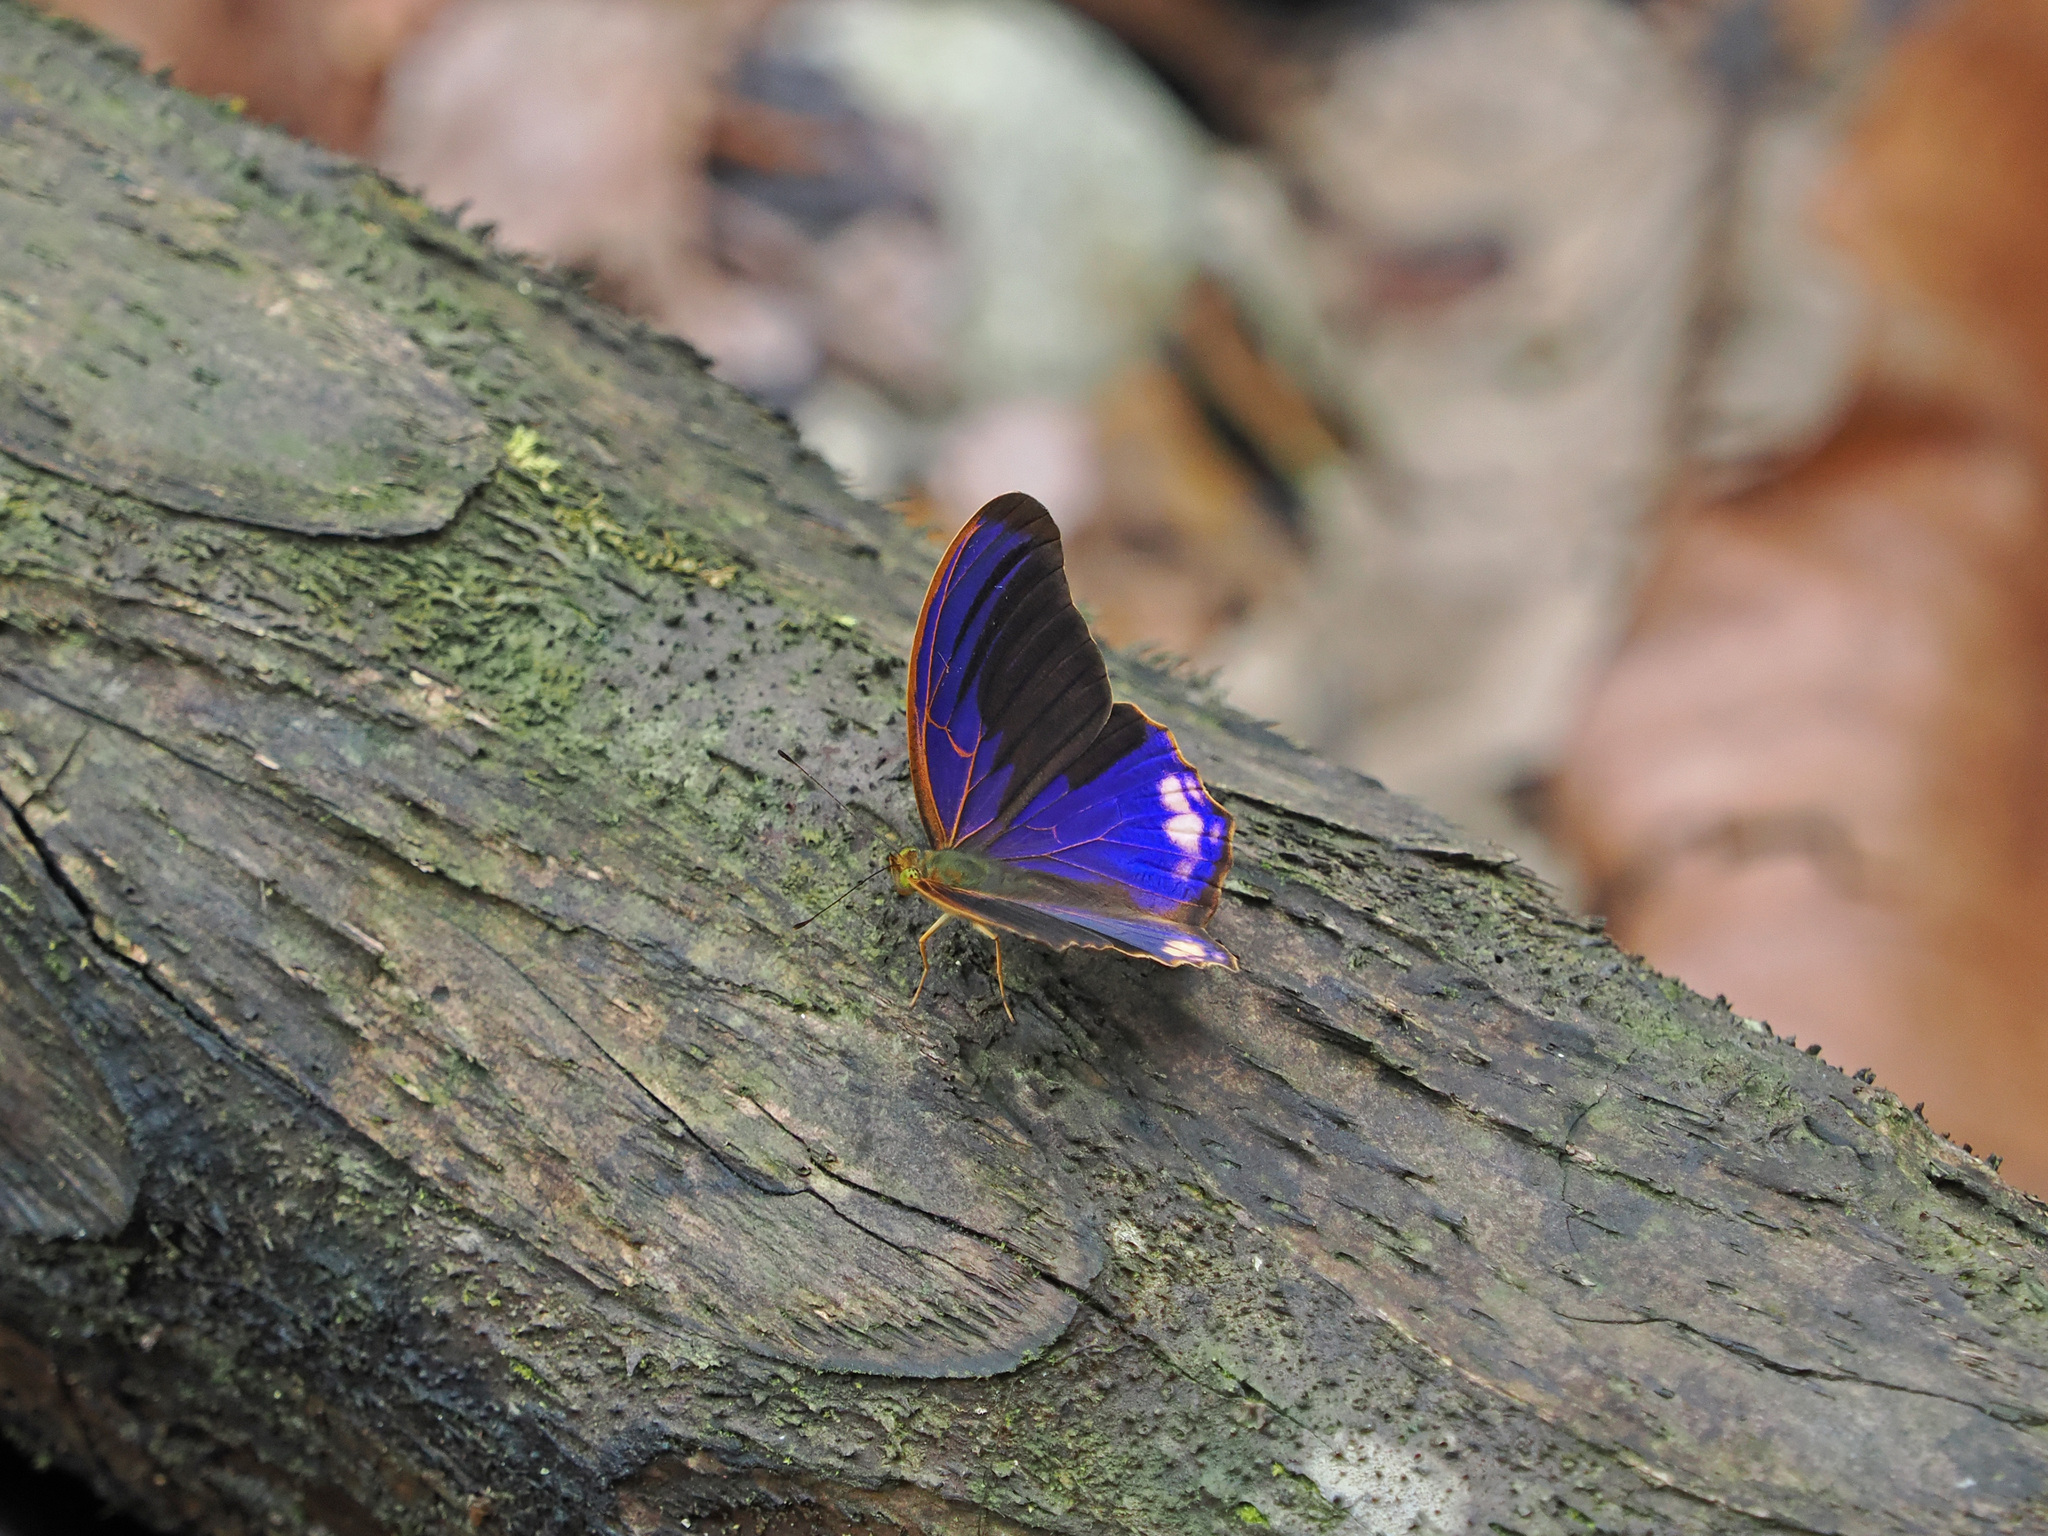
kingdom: Animalia
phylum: Arthropoda
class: Insecta
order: Lepidoptera
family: Nymphalidae
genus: Terinos
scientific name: Terinos terpander
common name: Royal assyrian
